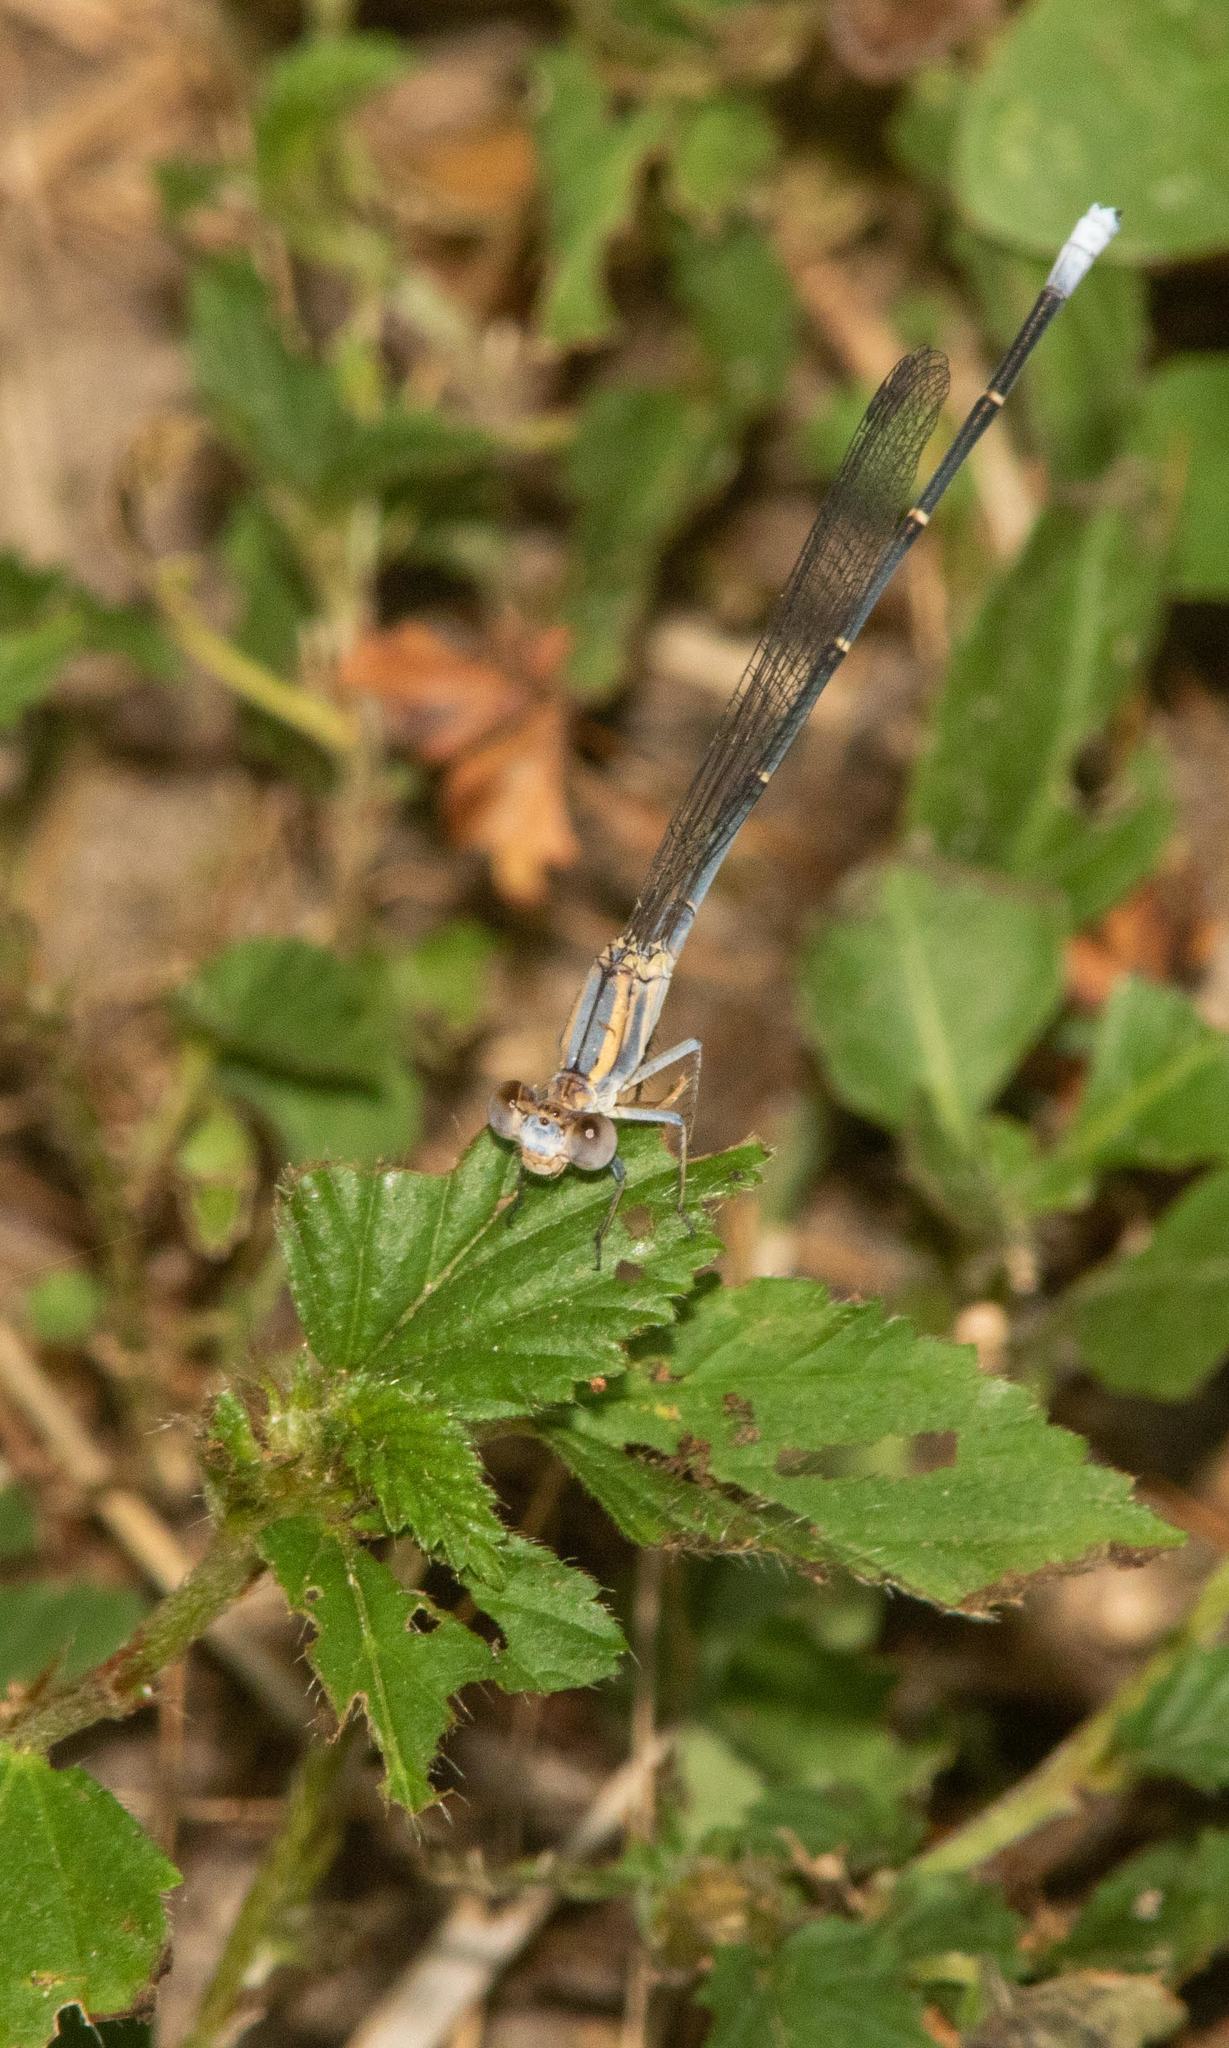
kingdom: Animalia
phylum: Arthropoda
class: Insecta
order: Odonata
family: Coenagrionidae
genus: Argia
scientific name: Argia moesta
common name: Powdered dancer
